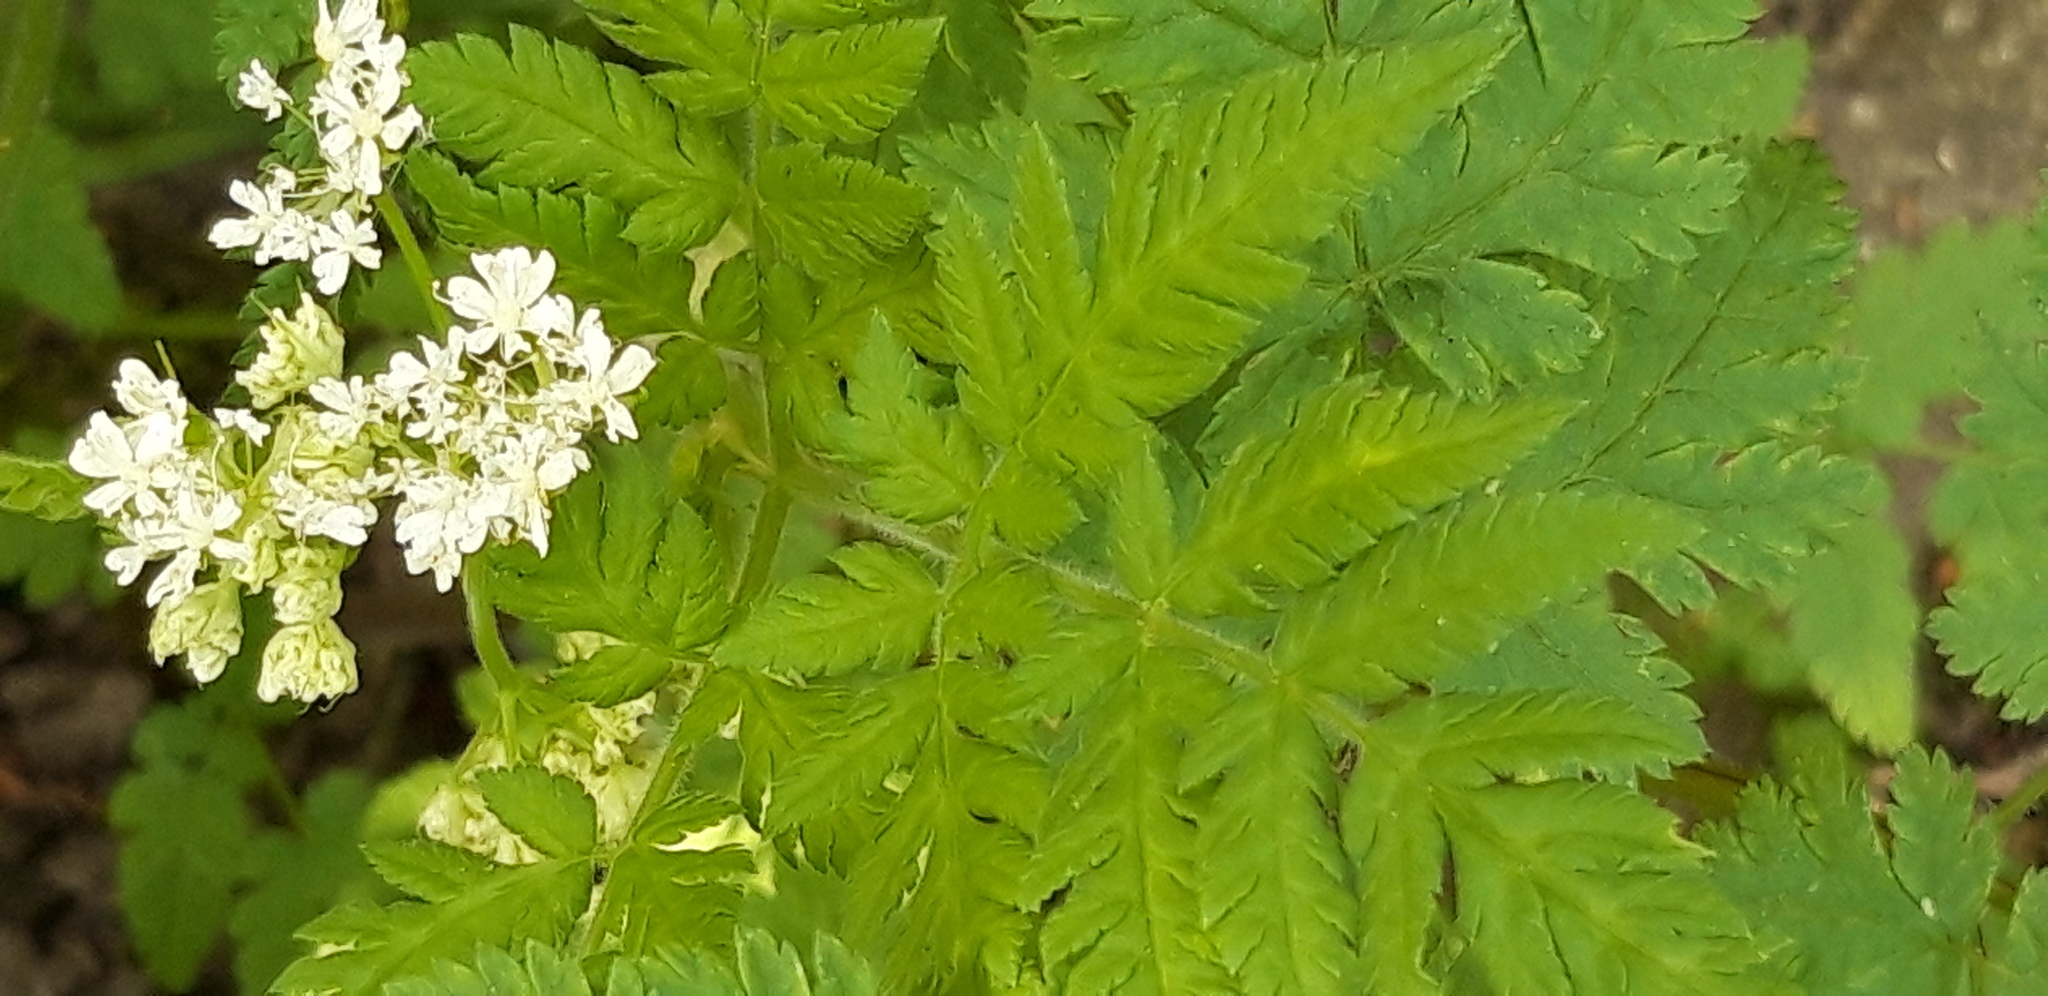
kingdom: Plantae
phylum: Tracheophyta
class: Magnoliopsida
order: Apiales
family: Apiaceae
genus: Anthriscus
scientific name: Anthriscus sylvestris
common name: Cow parsley
